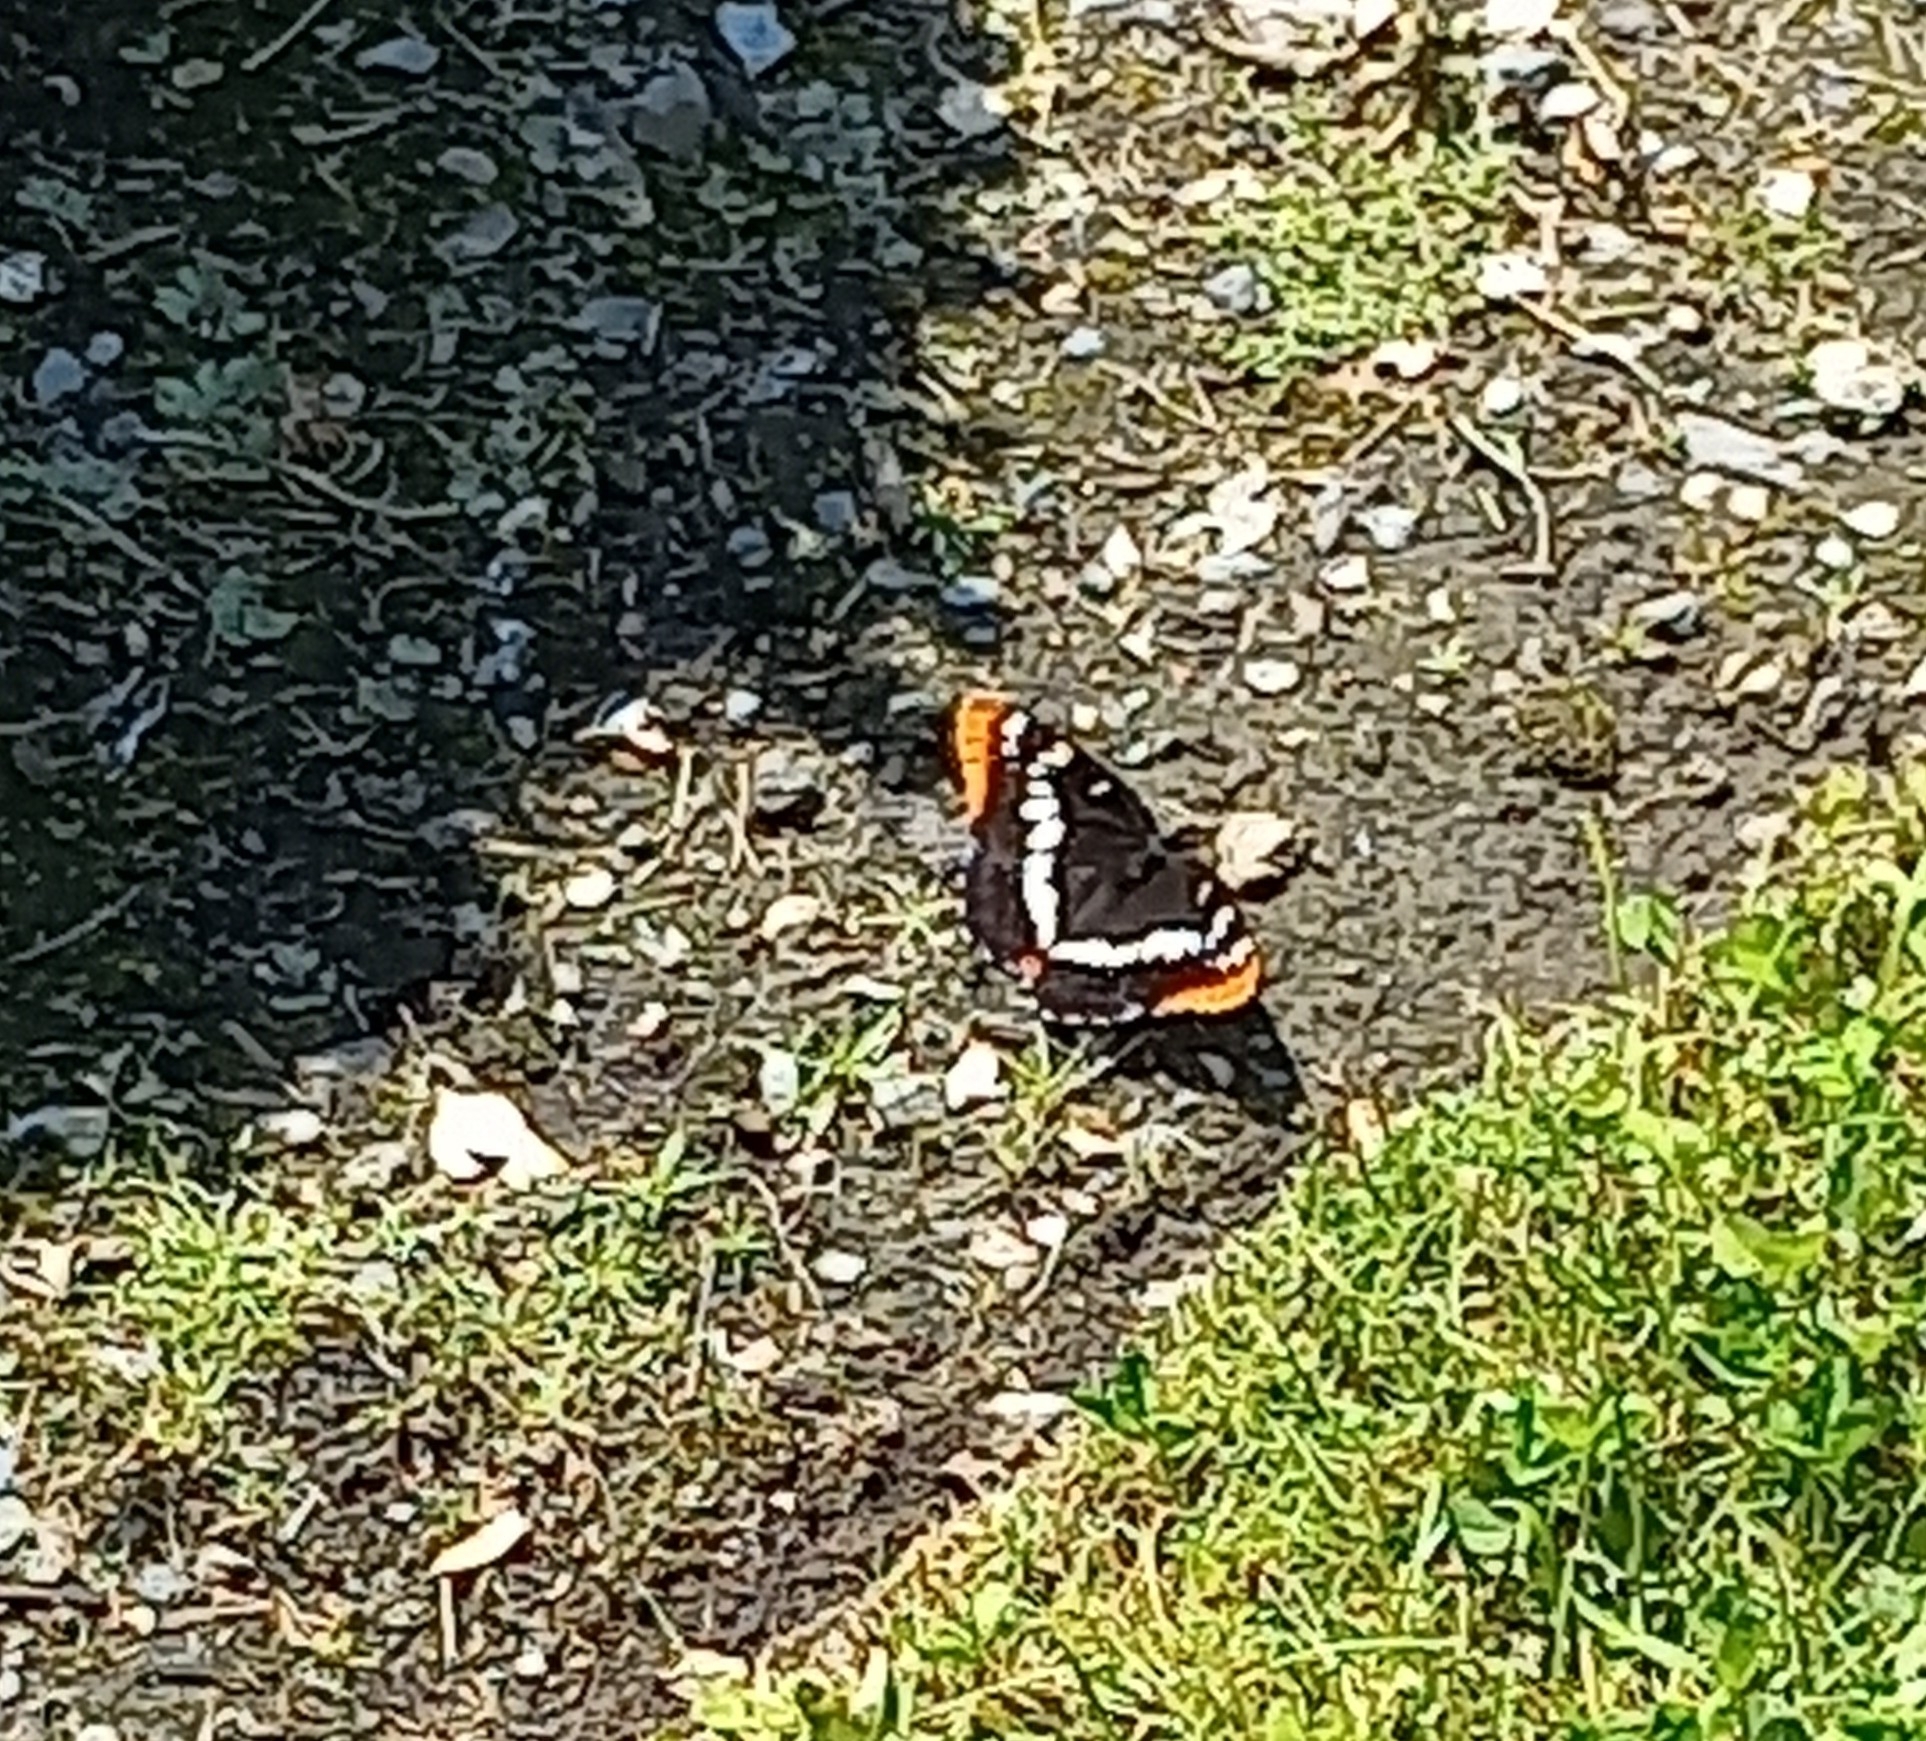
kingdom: Animalia
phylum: Arthropoda
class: Insecta
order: Lepidoptera
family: Nymphalidae
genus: Limenitis
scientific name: Limenitis lorquini
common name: Lorquin's admiral
